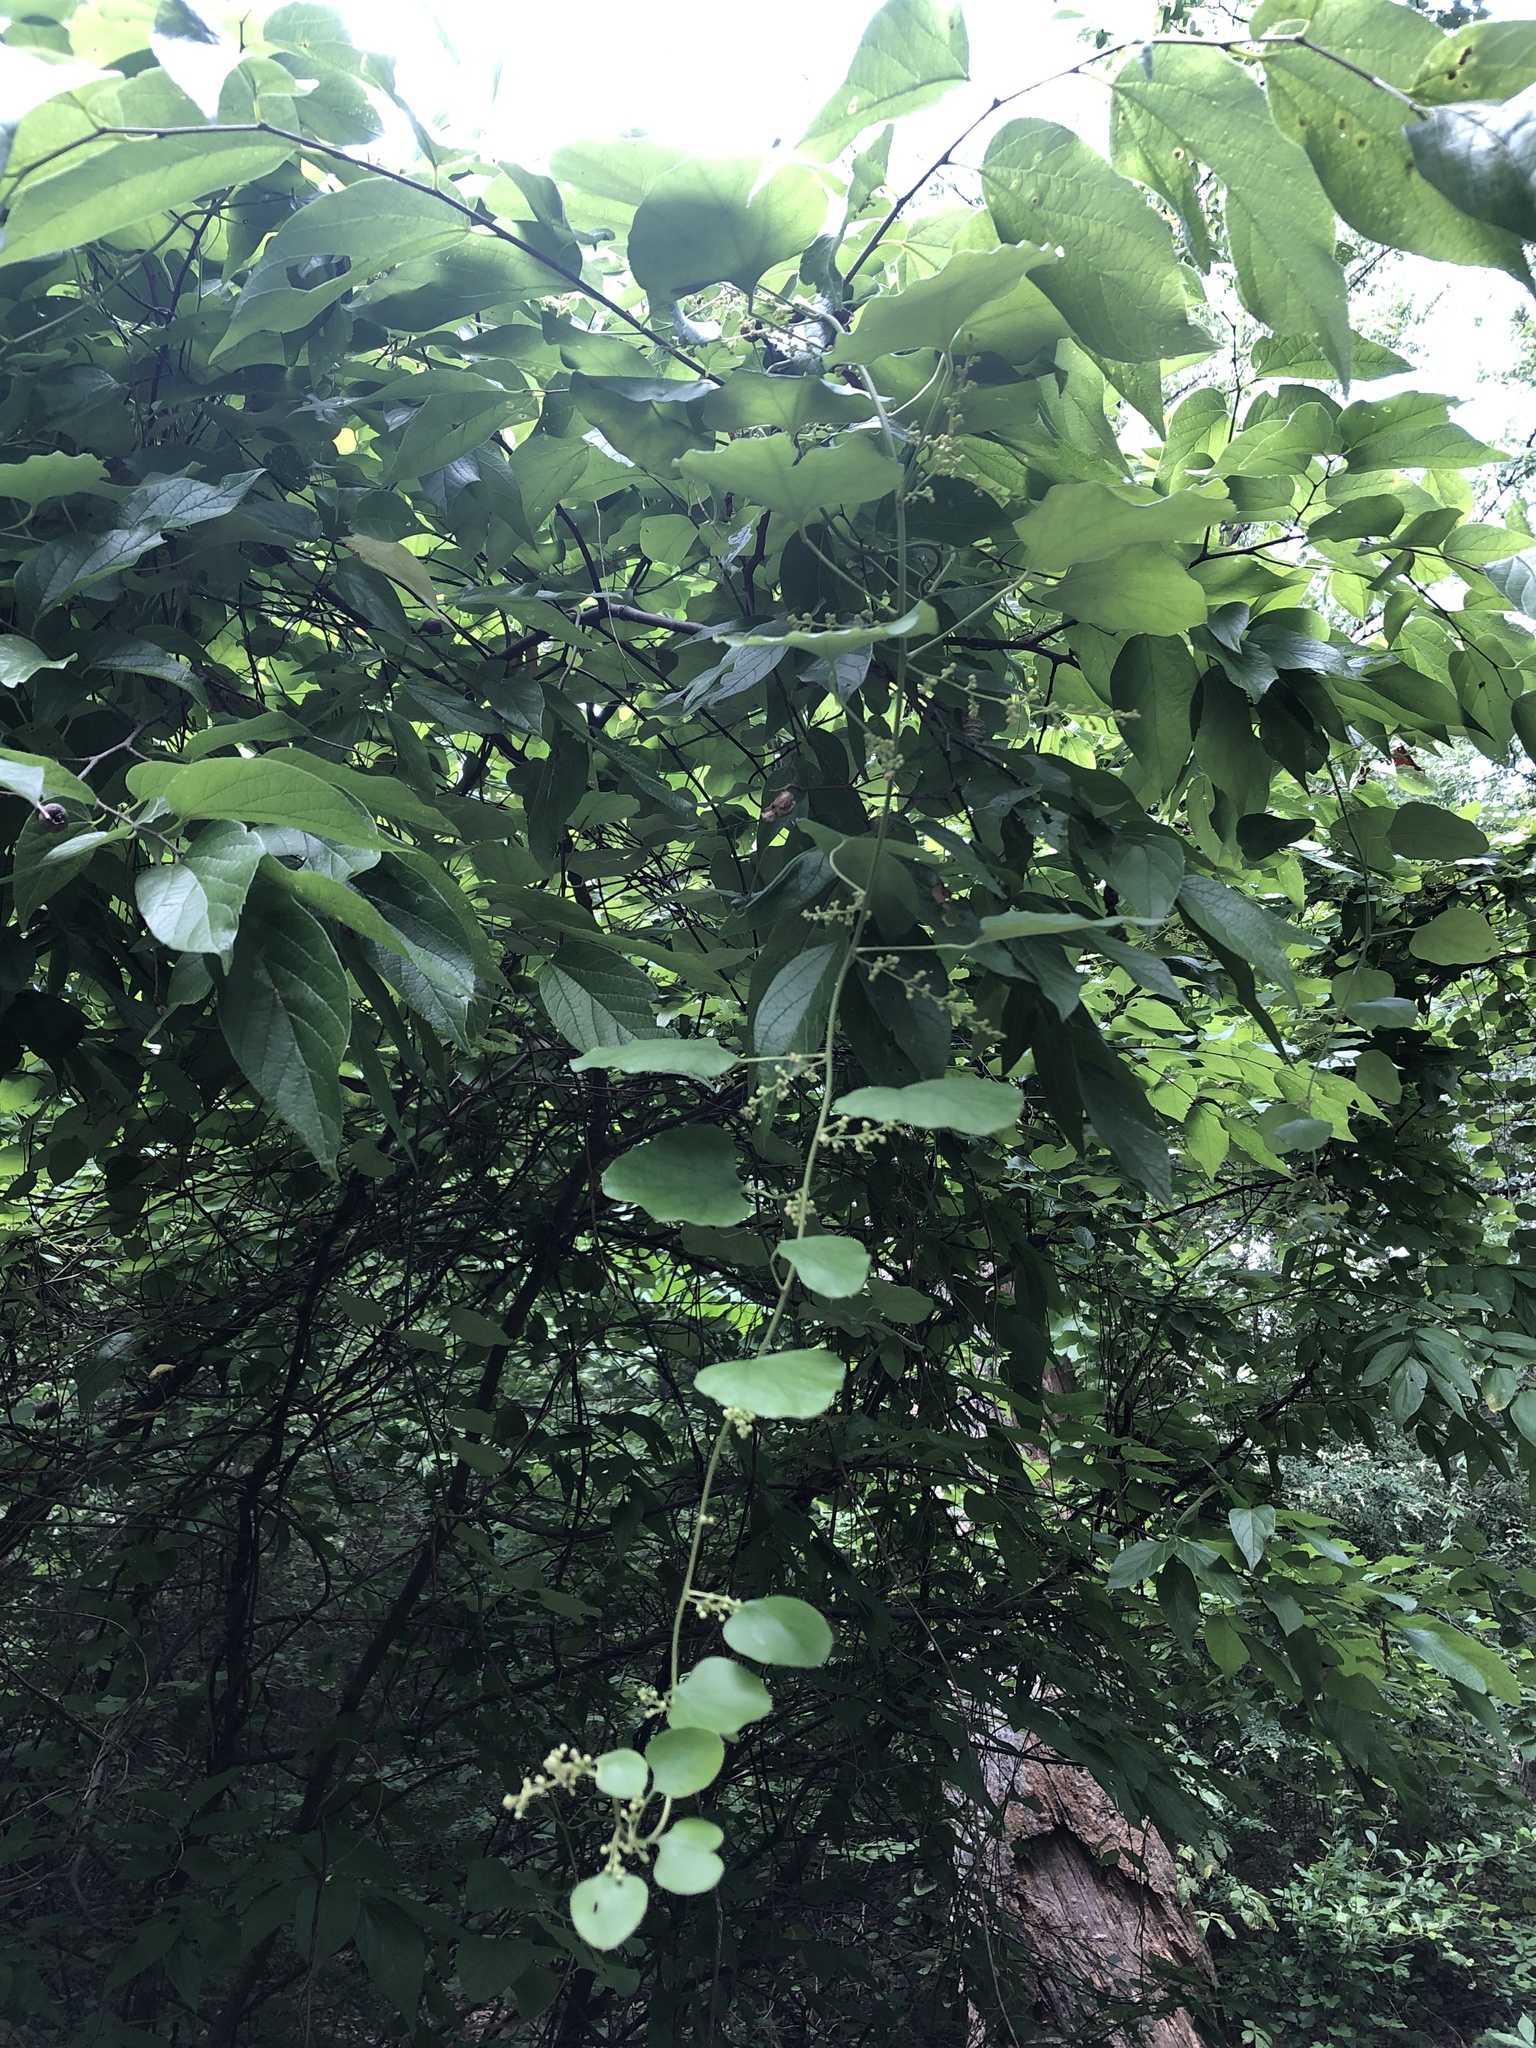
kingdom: Plantae
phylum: Tracheophyta
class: Magnoliopsida
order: Ranunculales
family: Menispermaceae
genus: Cocculus
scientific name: Cocculus carolinus
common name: Carolina moonseed
